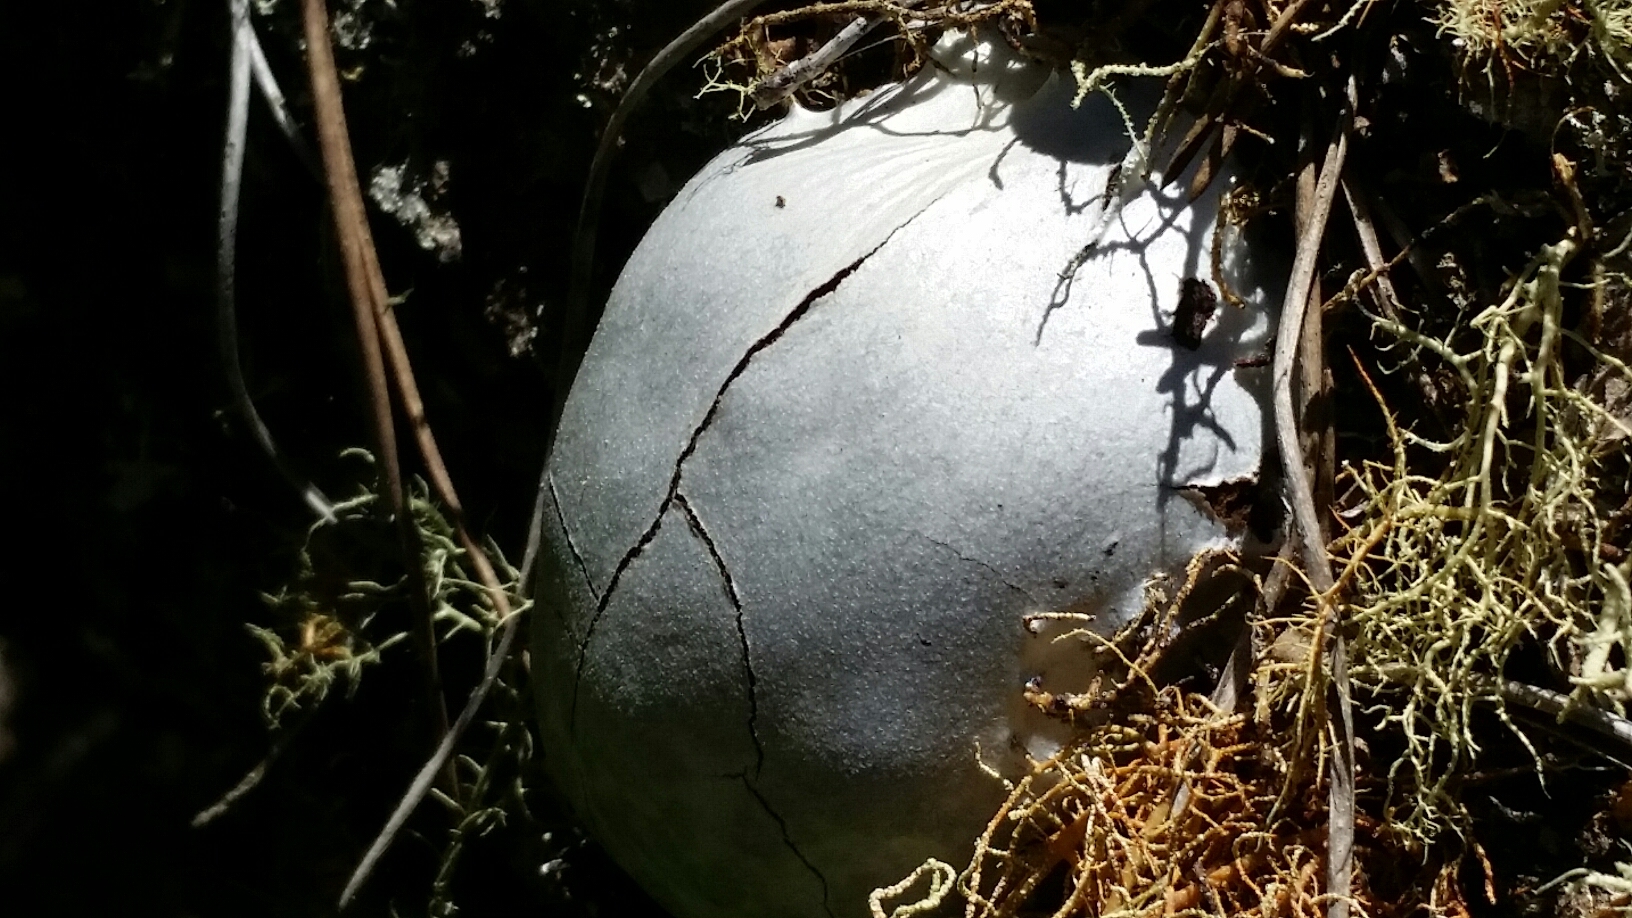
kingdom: Protozoa
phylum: Mycetozoa
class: Myxomycetes
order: Cribrariales
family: Tubiferaceae
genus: Reticularia
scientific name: Reticularia lycoperdon
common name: False puffball
